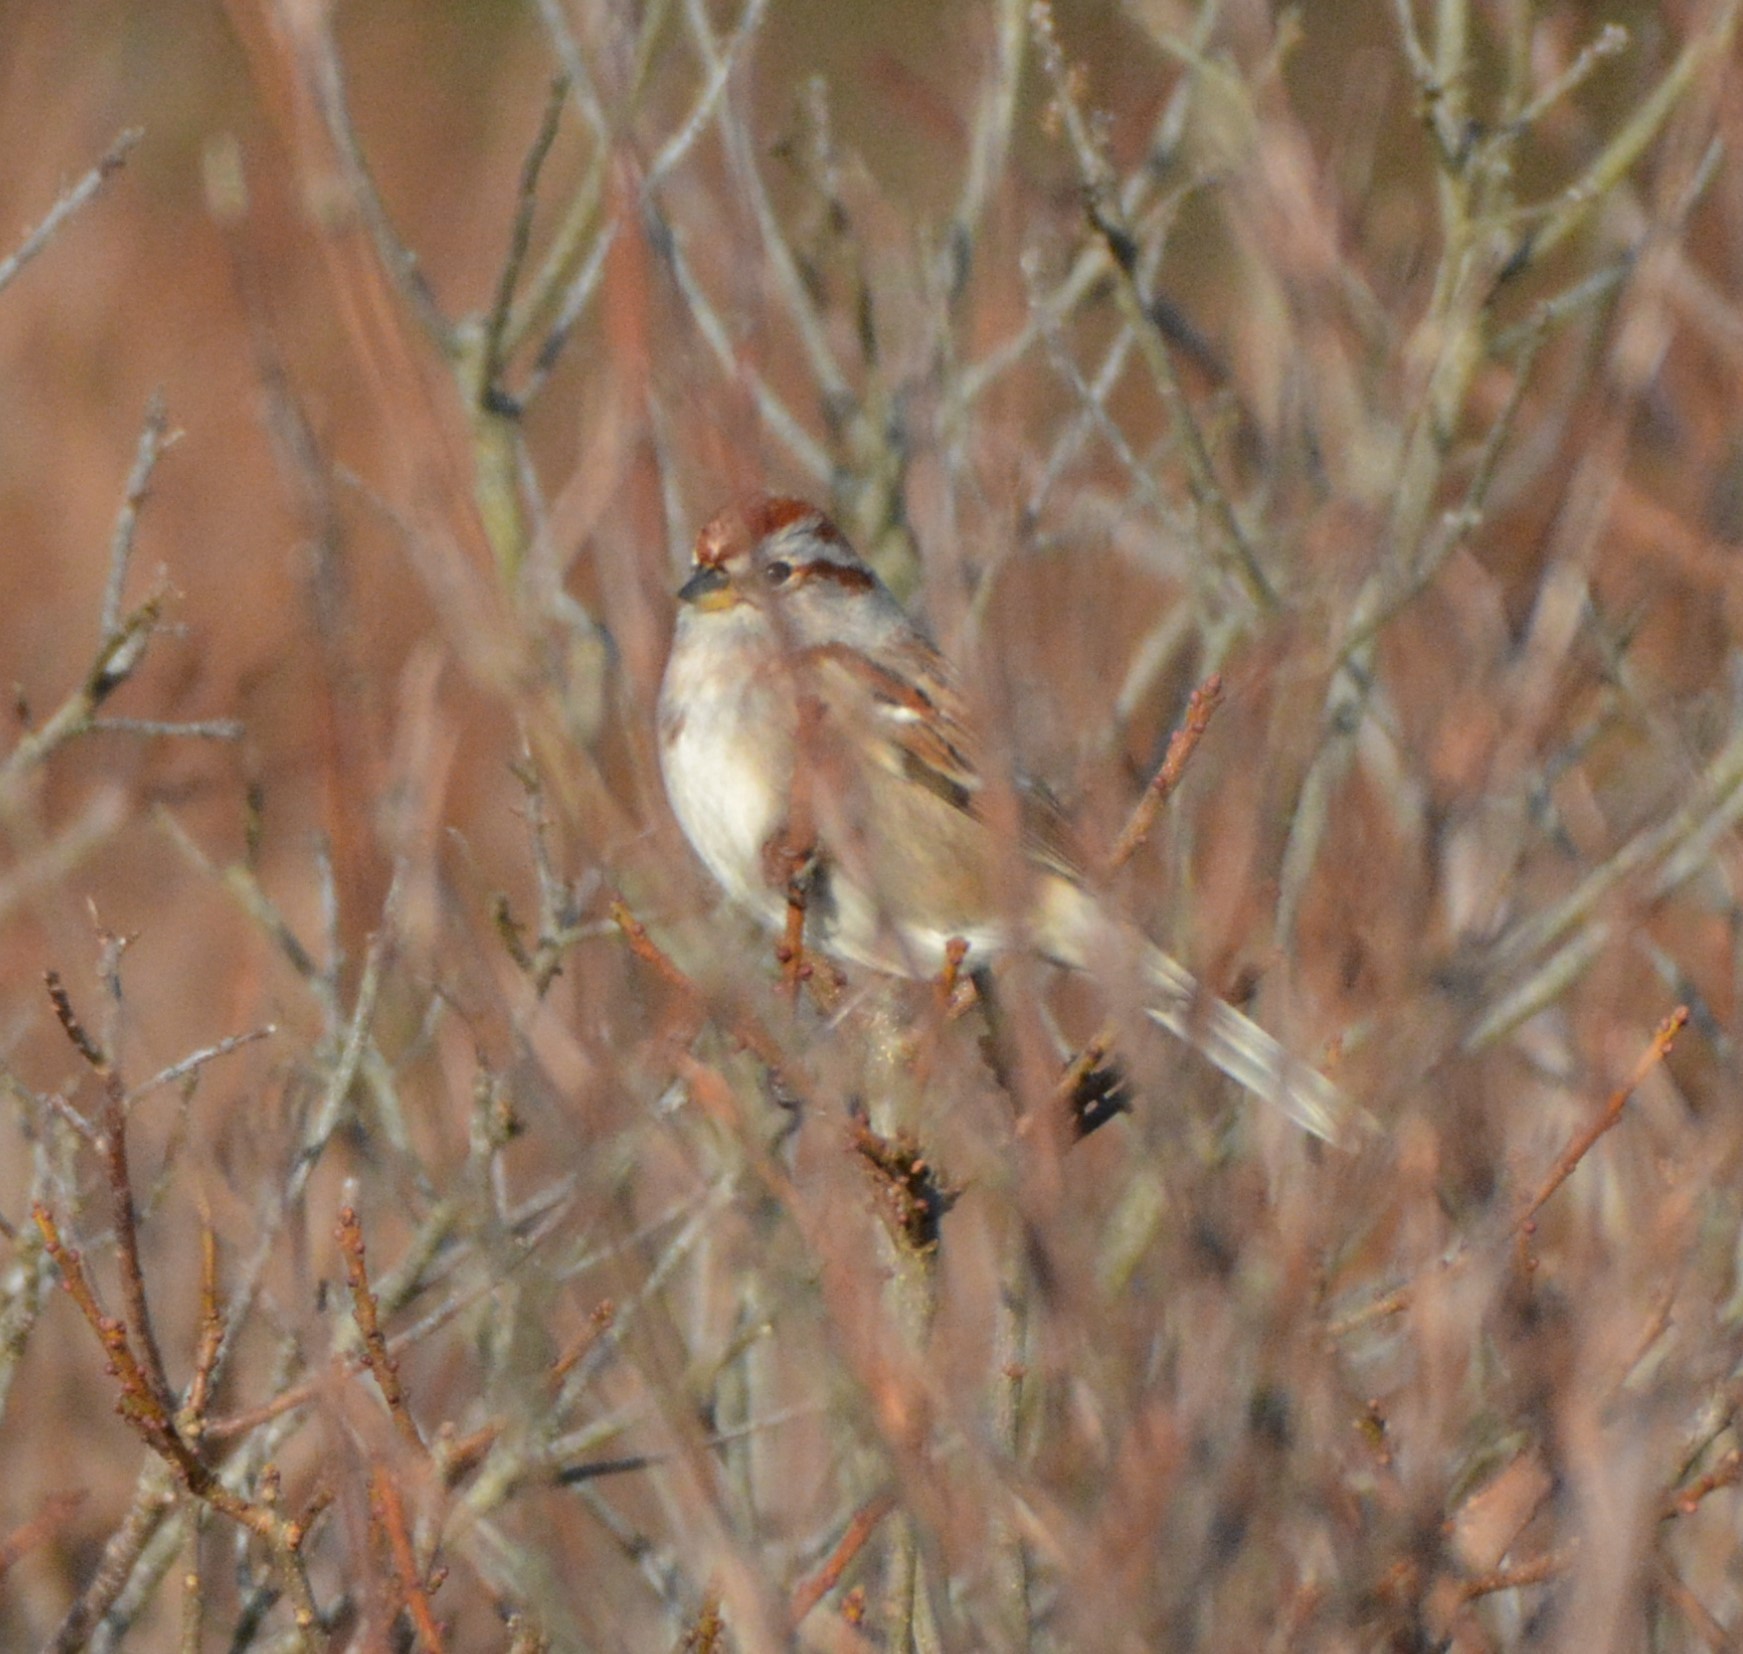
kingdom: Animalia
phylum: Chordata
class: Aves
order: Passeriformes
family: Passerellidae
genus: Spizelloides
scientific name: Spizelloides arborea
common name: American tree sparrow
